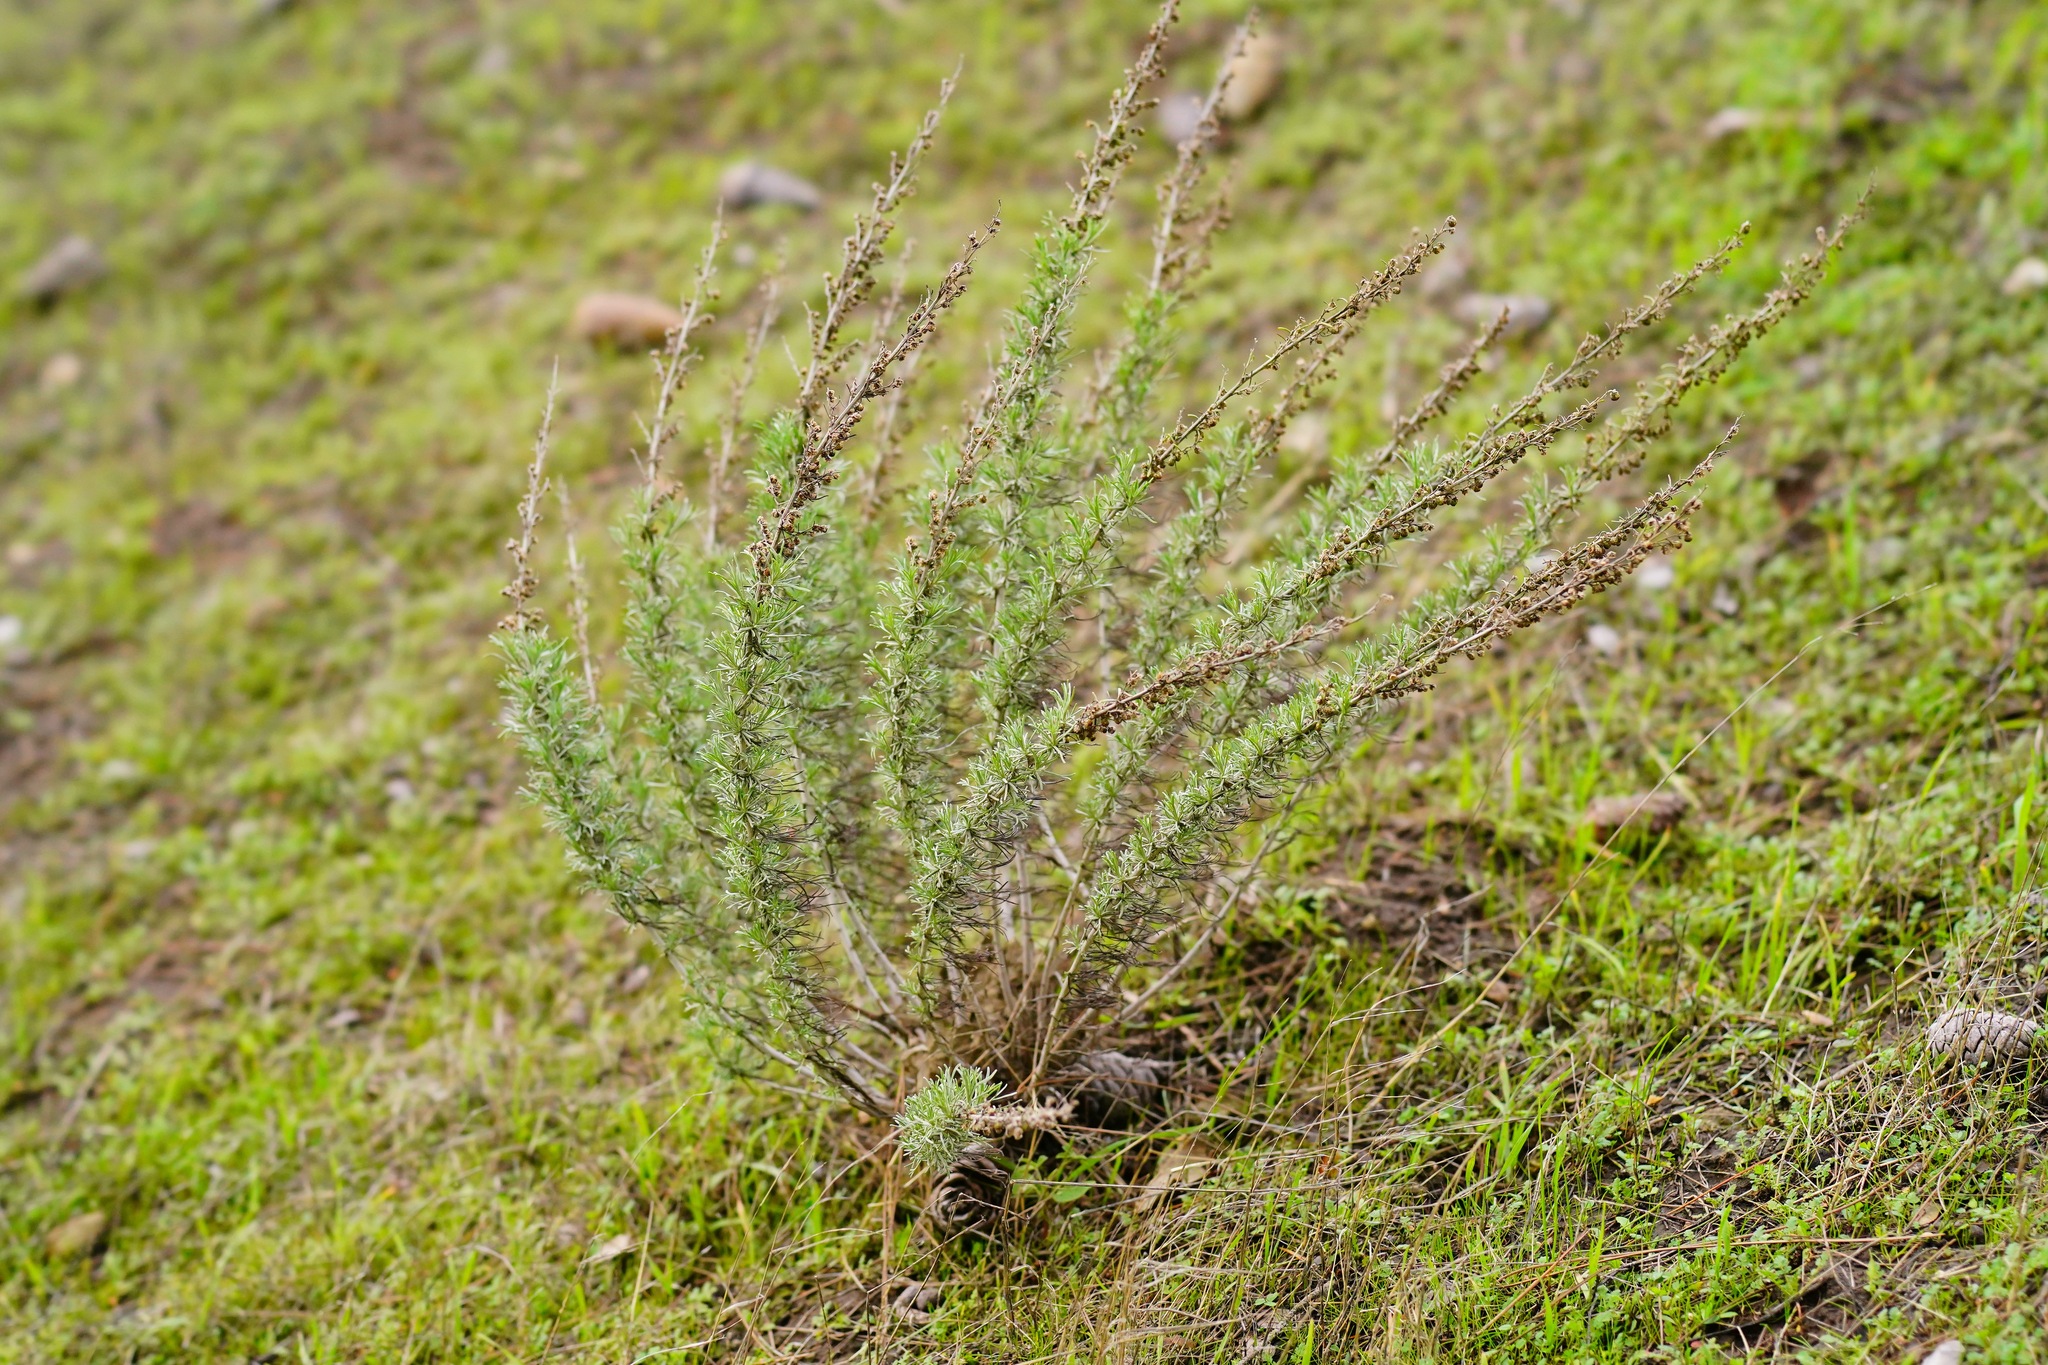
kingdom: Plantae
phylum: Tracheophyta
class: Magnoliopsida
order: Asterales
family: Asteraceae
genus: Artemisia
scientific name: Artemisia californica
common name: California sagebrush
